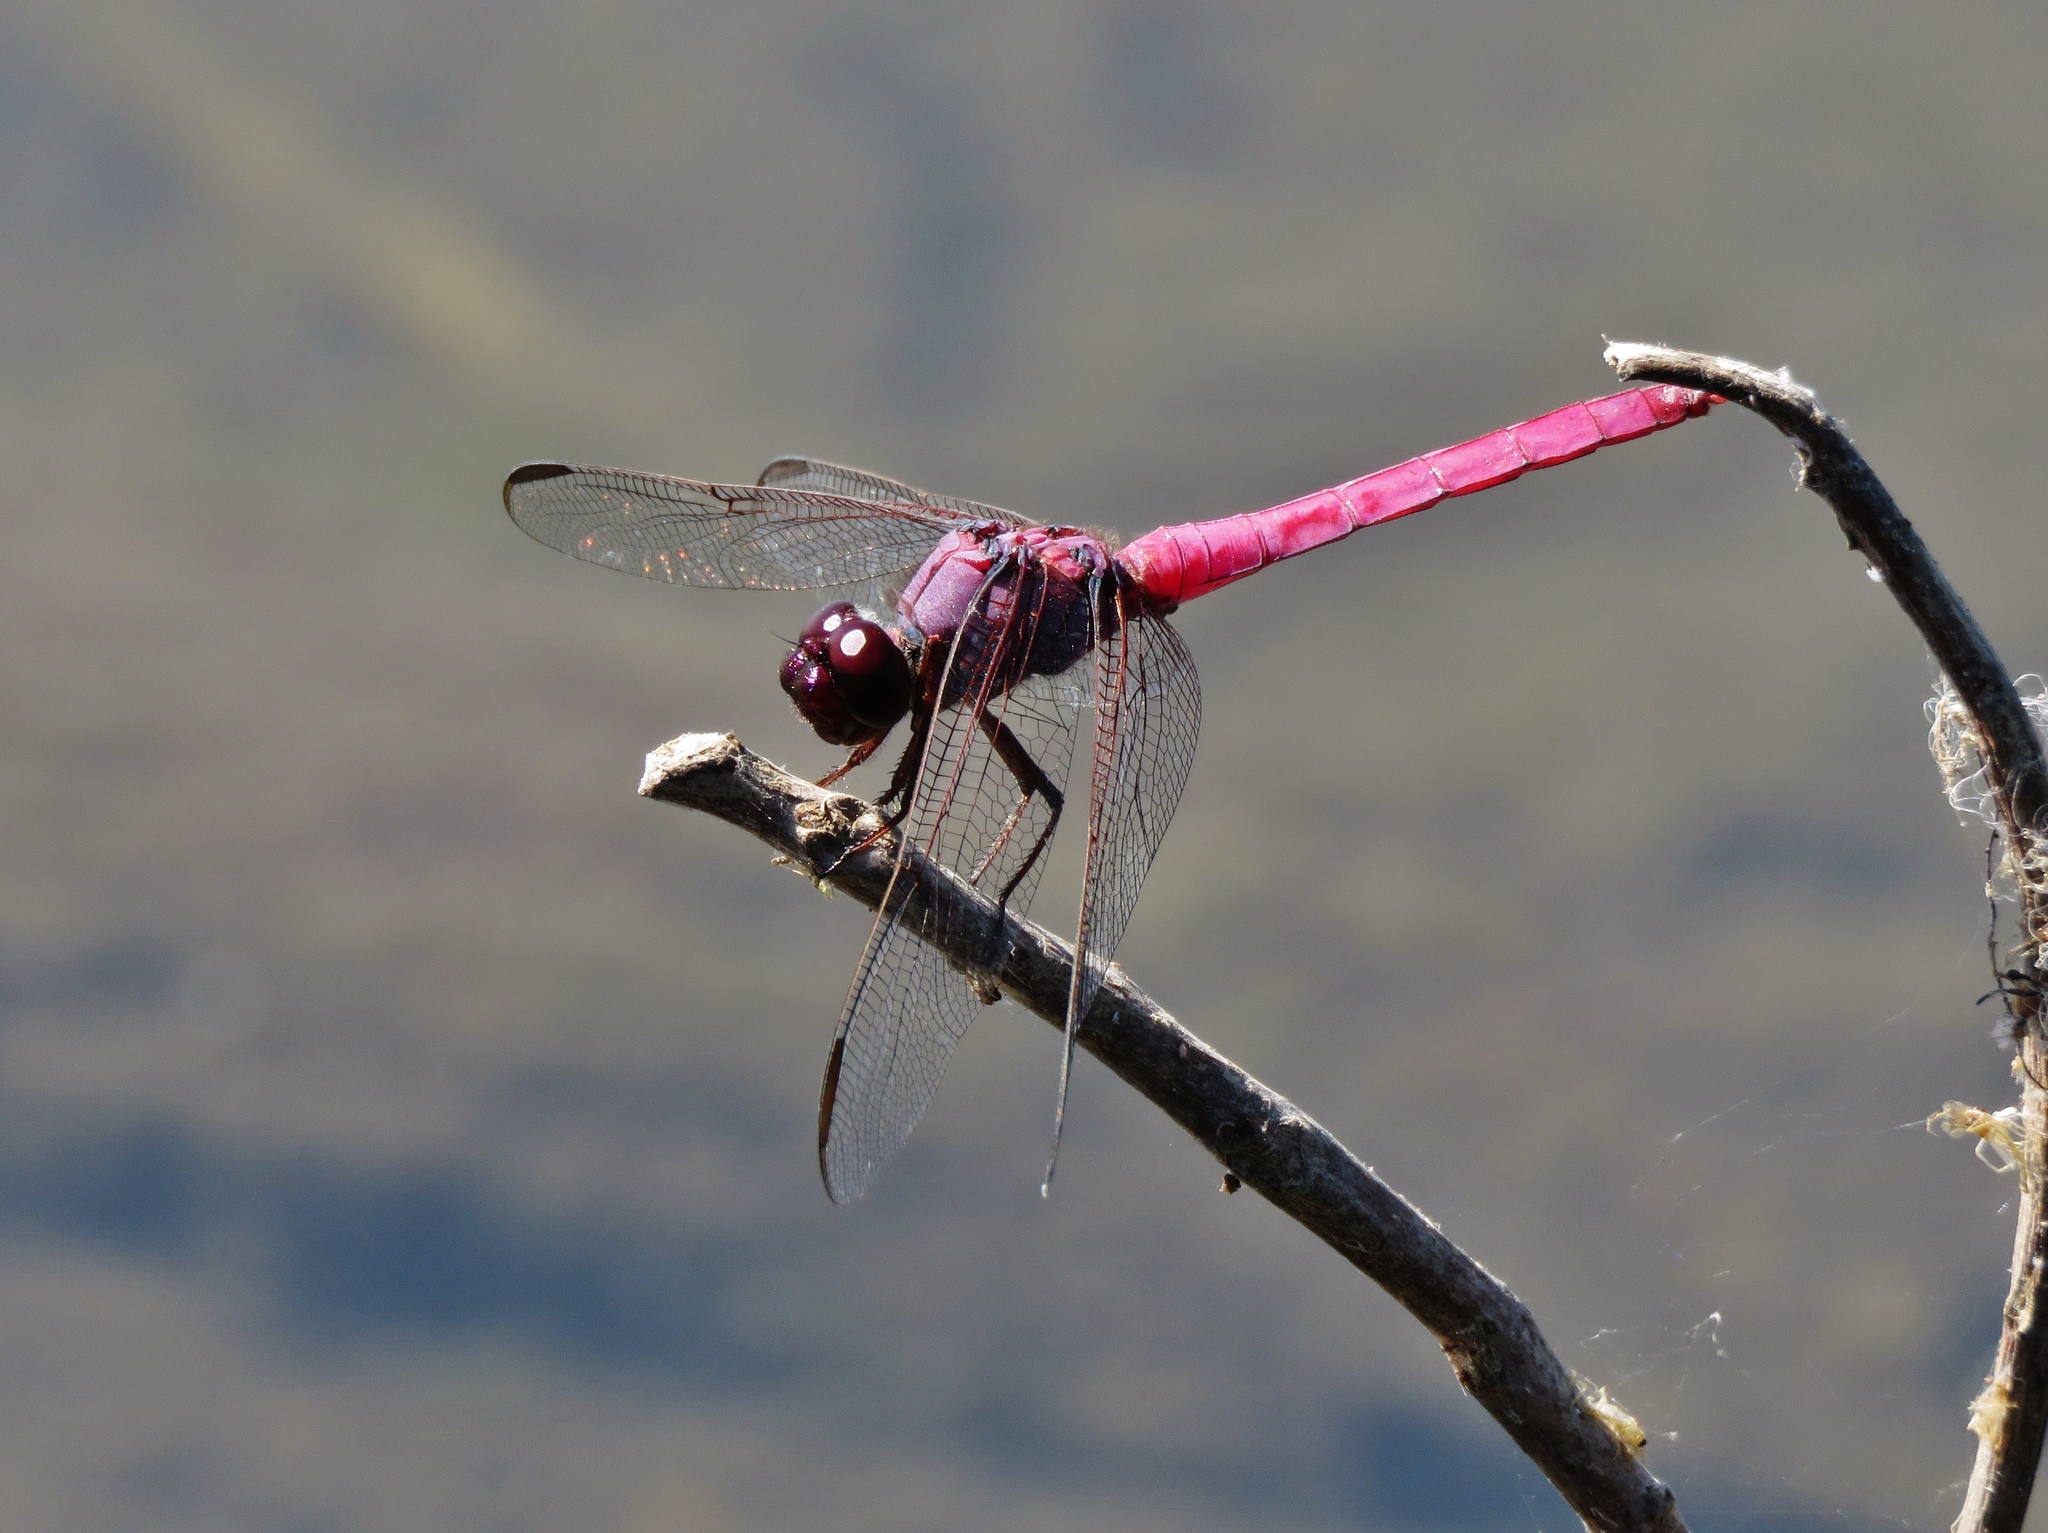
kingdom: Animalia
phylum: Arthropoda
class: Insecta
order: Odonata
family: Libellulidae
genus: Orthemis
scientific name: Orthemis ferruginea
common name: Roseate skimmer
